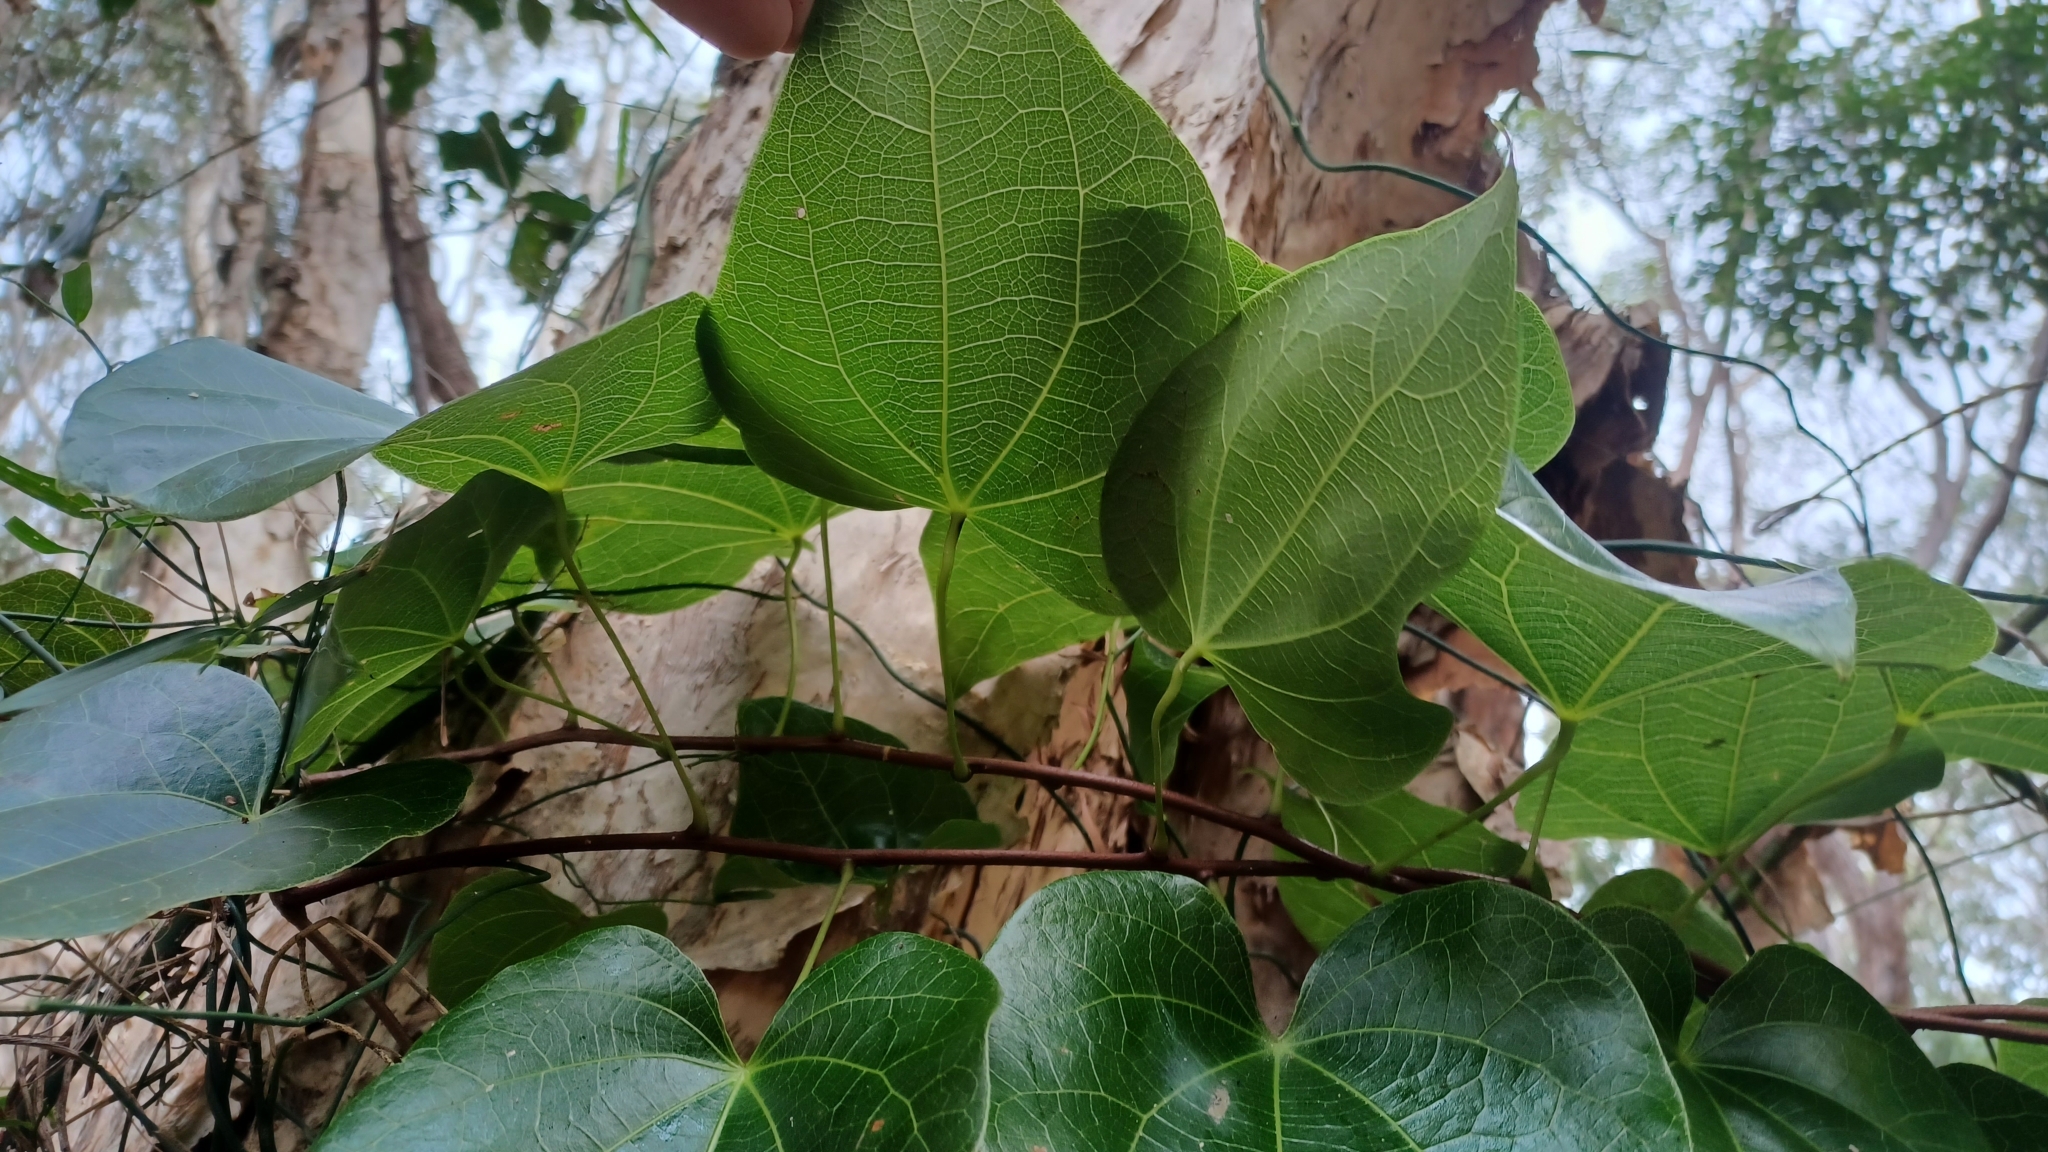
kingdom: Plantae
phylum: Tracheophyta
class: Magnoliopsida
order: Ranunculales
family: Menispermaceae
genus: Sarcopetalum
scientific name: Sarcopetalum harveyanum
